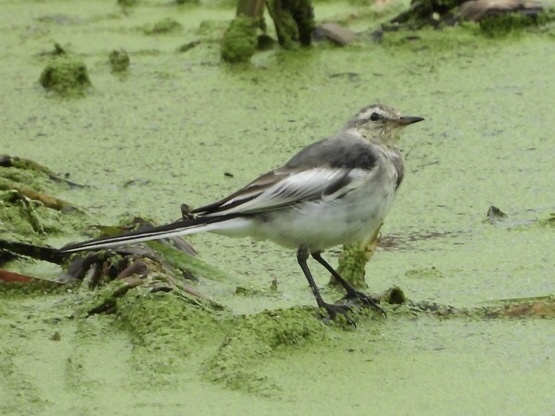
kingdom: Animalia
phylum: Chordata
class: Aves
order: Passeriformes
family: Motacillidae
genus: Motacilla
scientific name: Motacilla alba
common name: White wagtail
